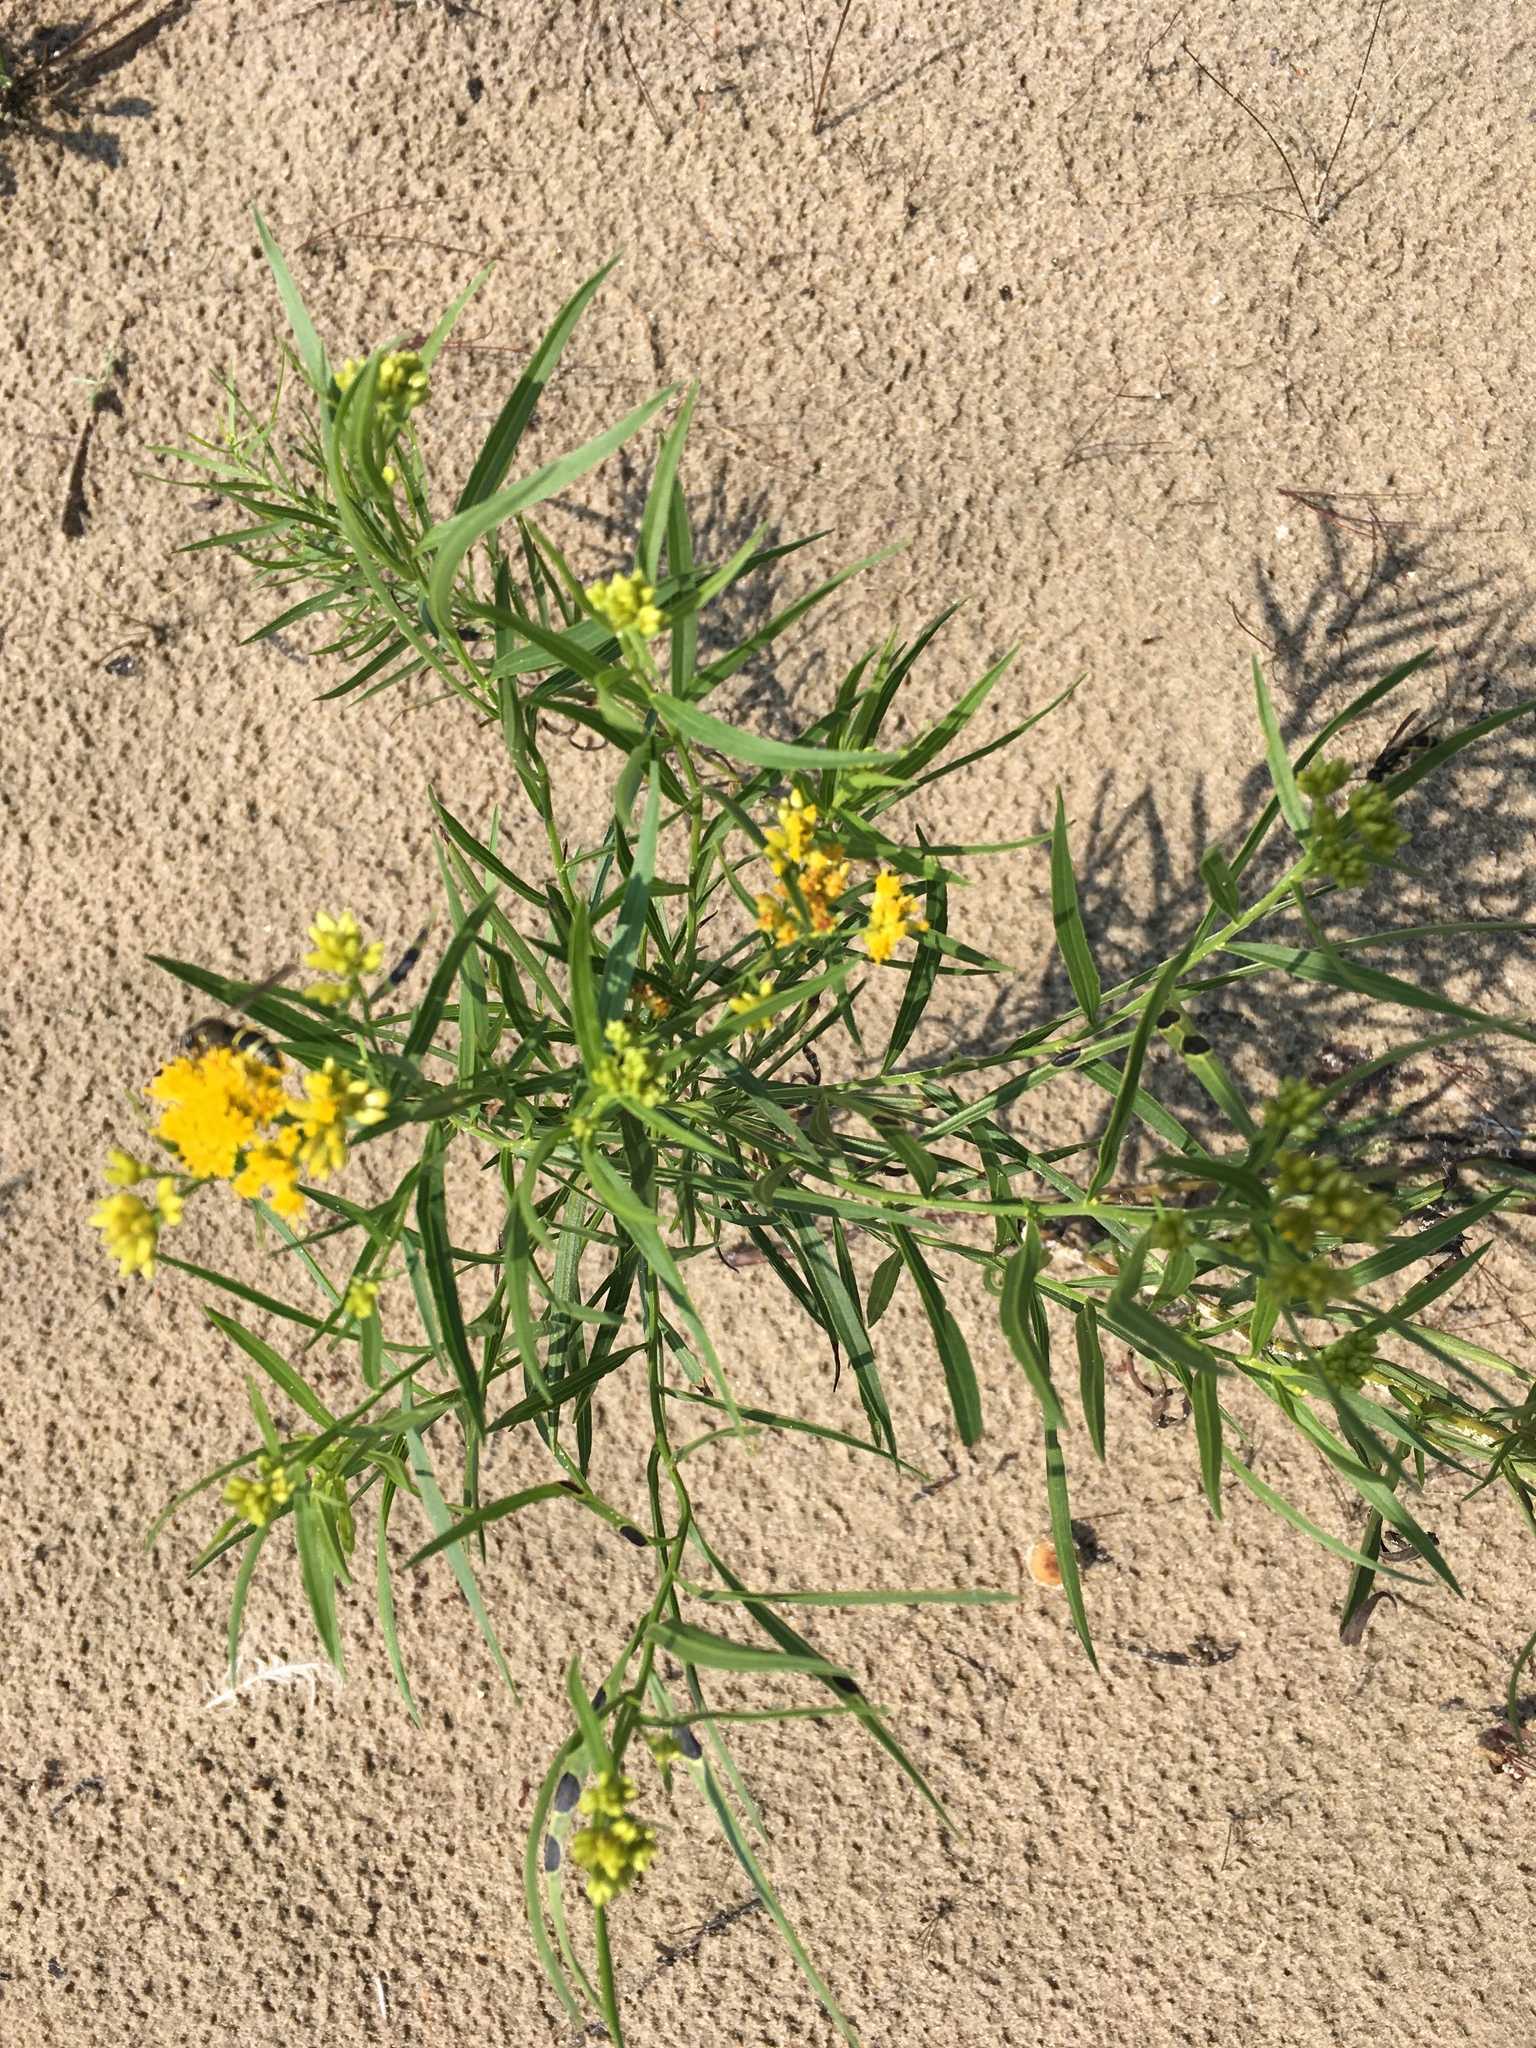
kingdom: Plantae
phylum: Tracheophyta
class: Magnoliopsida
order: Asterales
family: Asteraceae
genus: Euthamia
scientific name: Euthamia graminifolia
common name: Common goldentop
